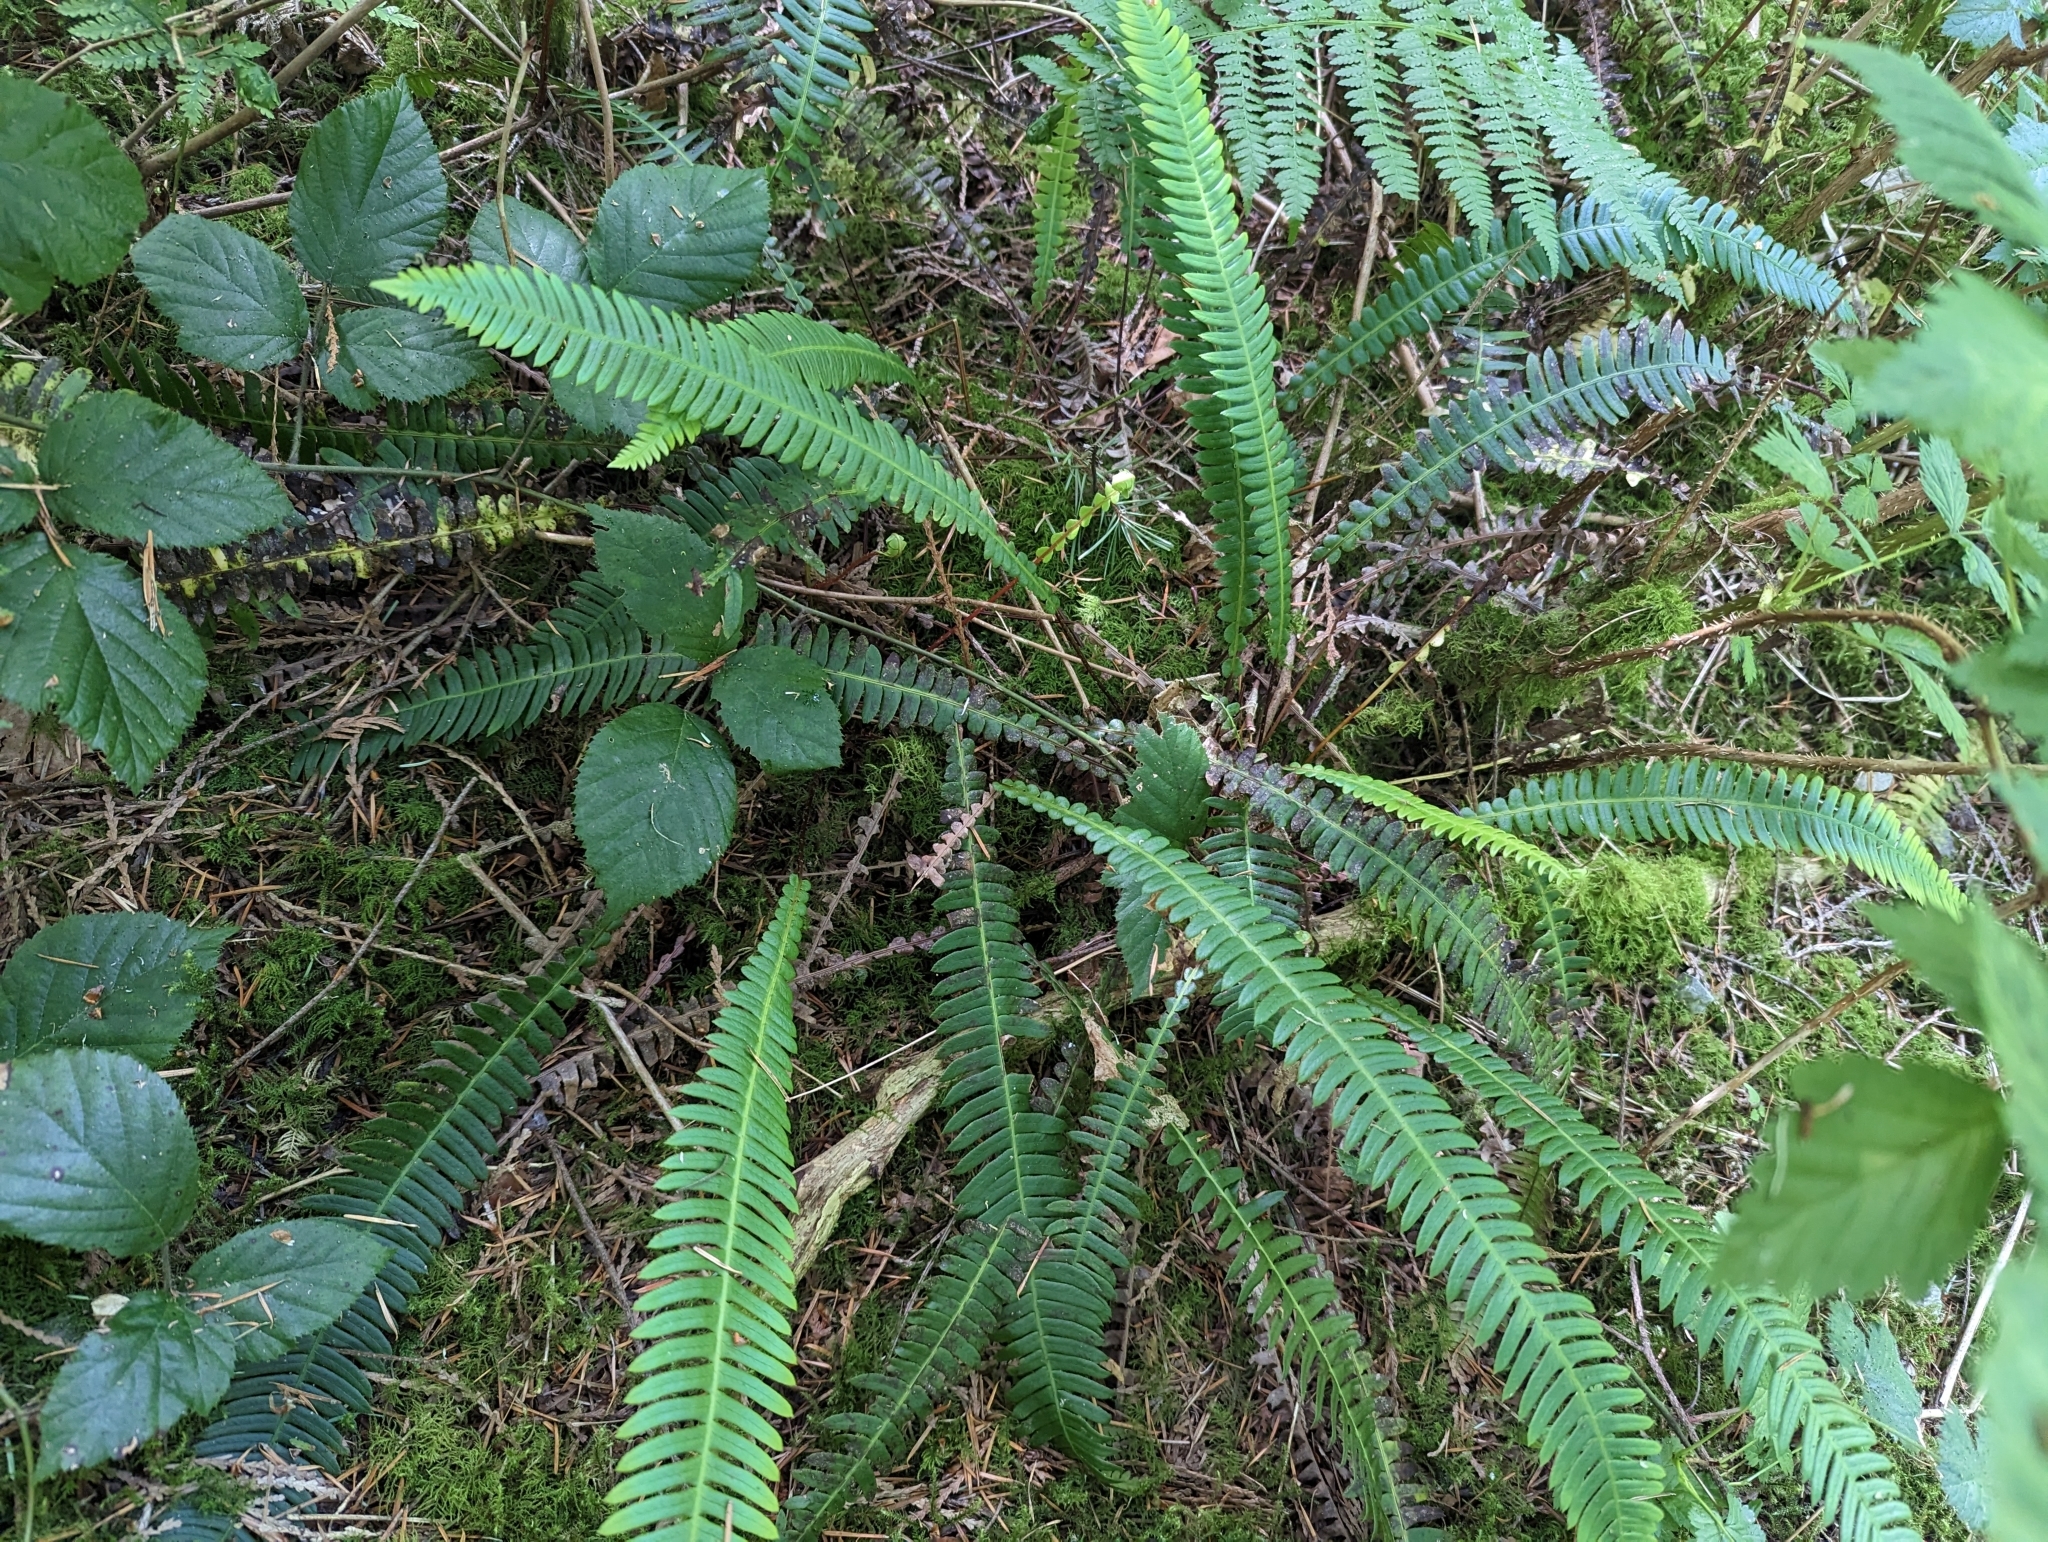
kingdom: Plantae
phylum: Tracheophyta
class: Polypodiopsida
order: Polypodiales
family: Blechnaceae
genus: Struthiopteris
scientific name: Struthiopteris spicant
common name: Deer fern
